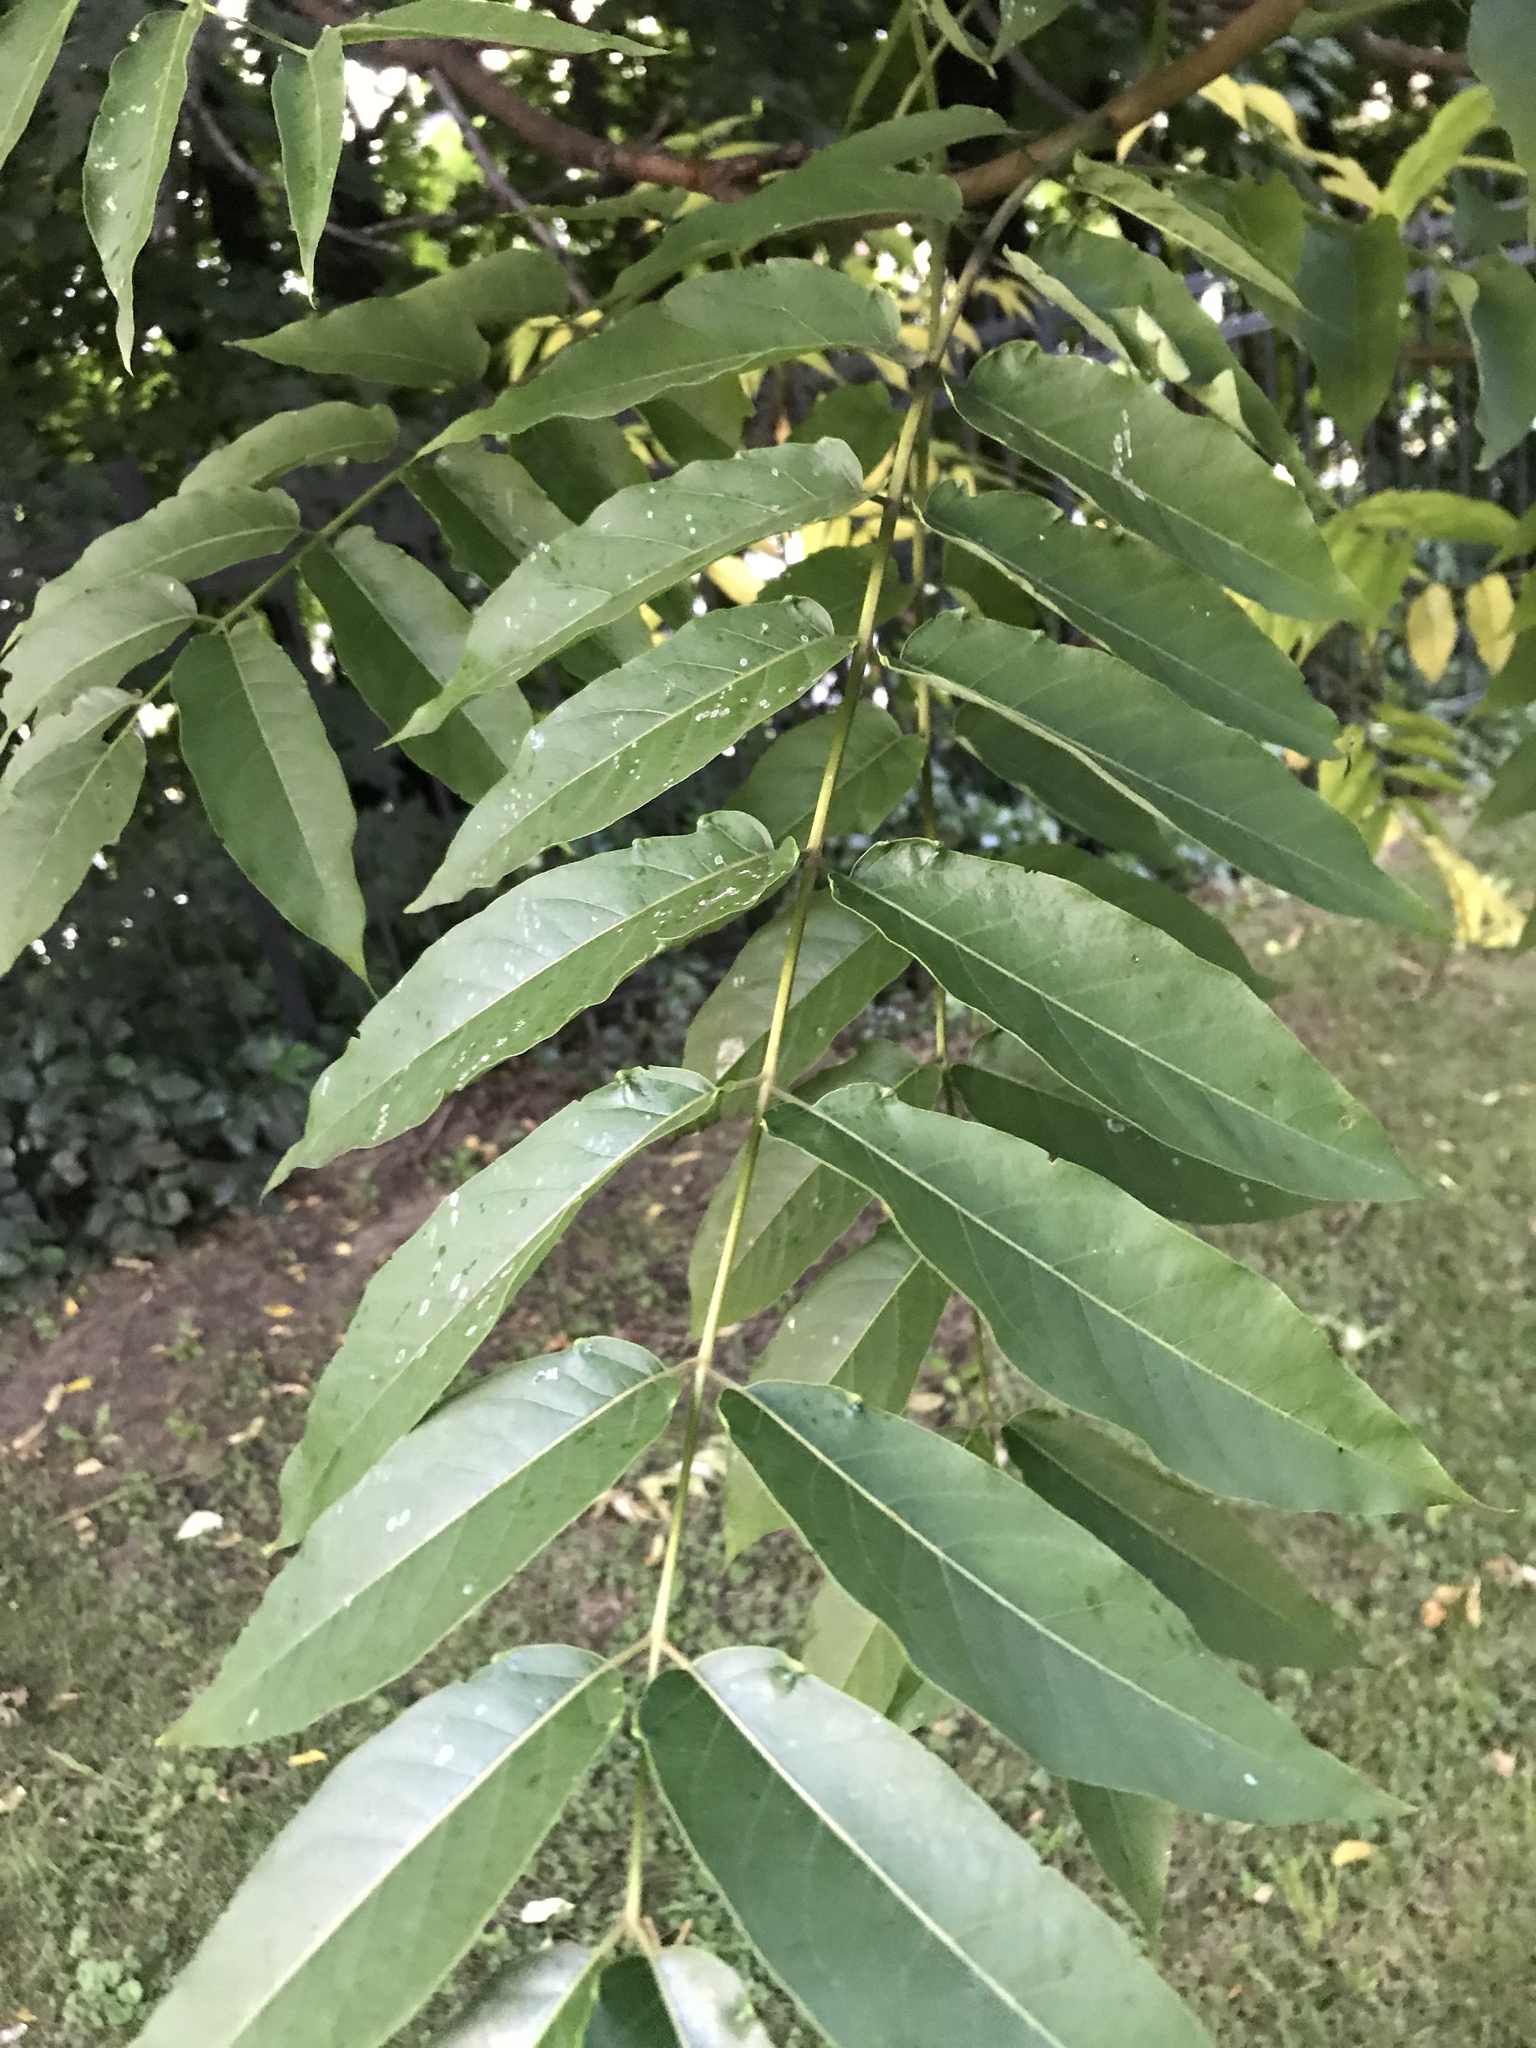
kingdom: Plantae
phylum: Tracheophyta
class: Magnoliopsida
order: Sapindales
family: Simaroubaceae
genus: Ailanthus
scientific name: Ailanthus altissima
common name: Tree-of-heaven
